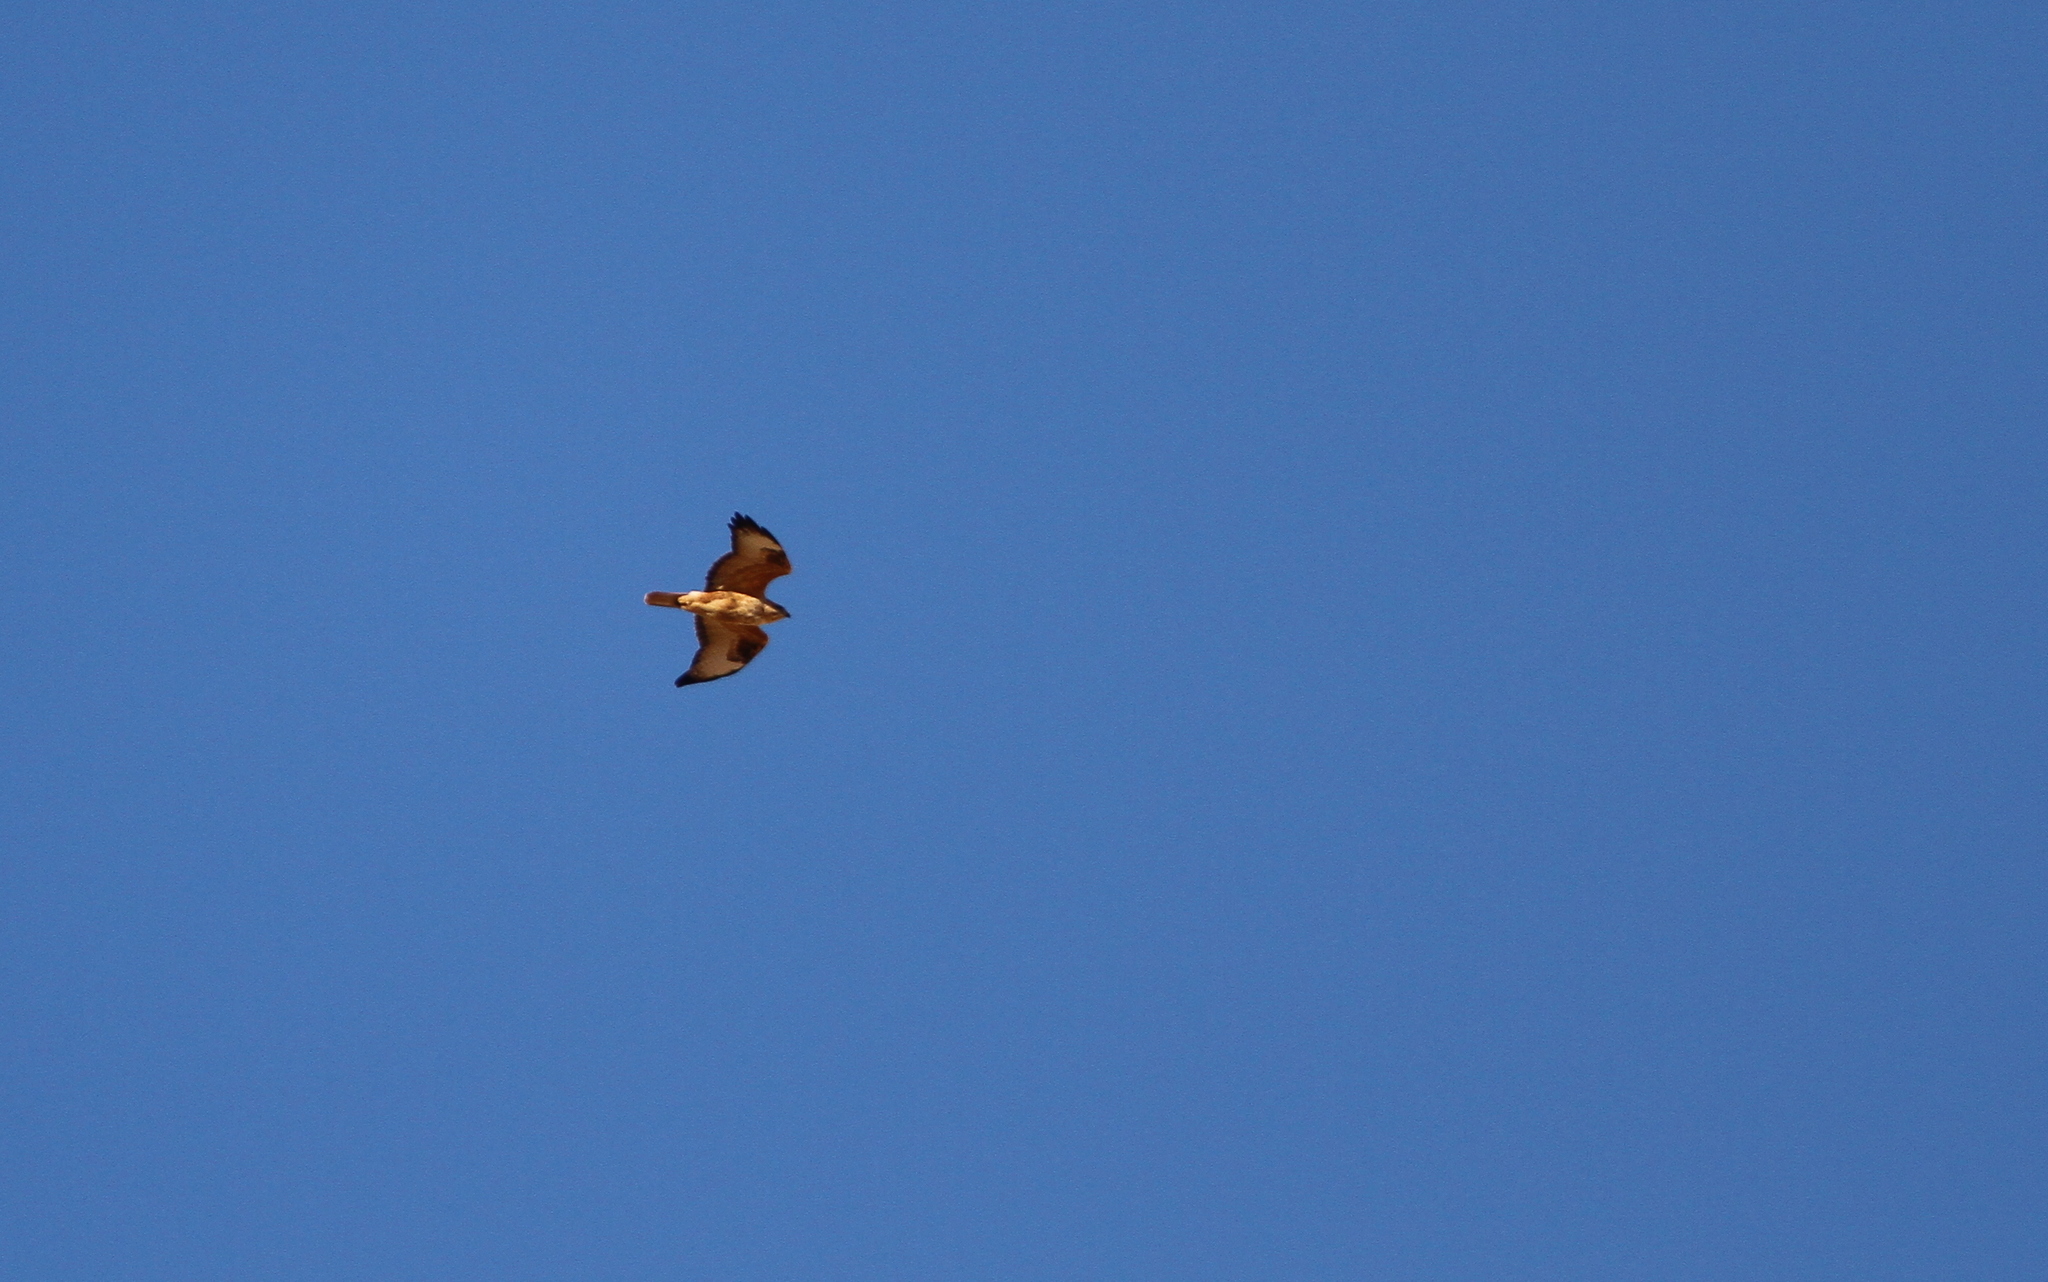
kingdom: Animalia
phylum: Chordata
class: Aves
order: Accipitriformes
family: Accipitridae
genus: Buteo
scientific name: Buteo rufinus
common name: Long-legged buzzard
